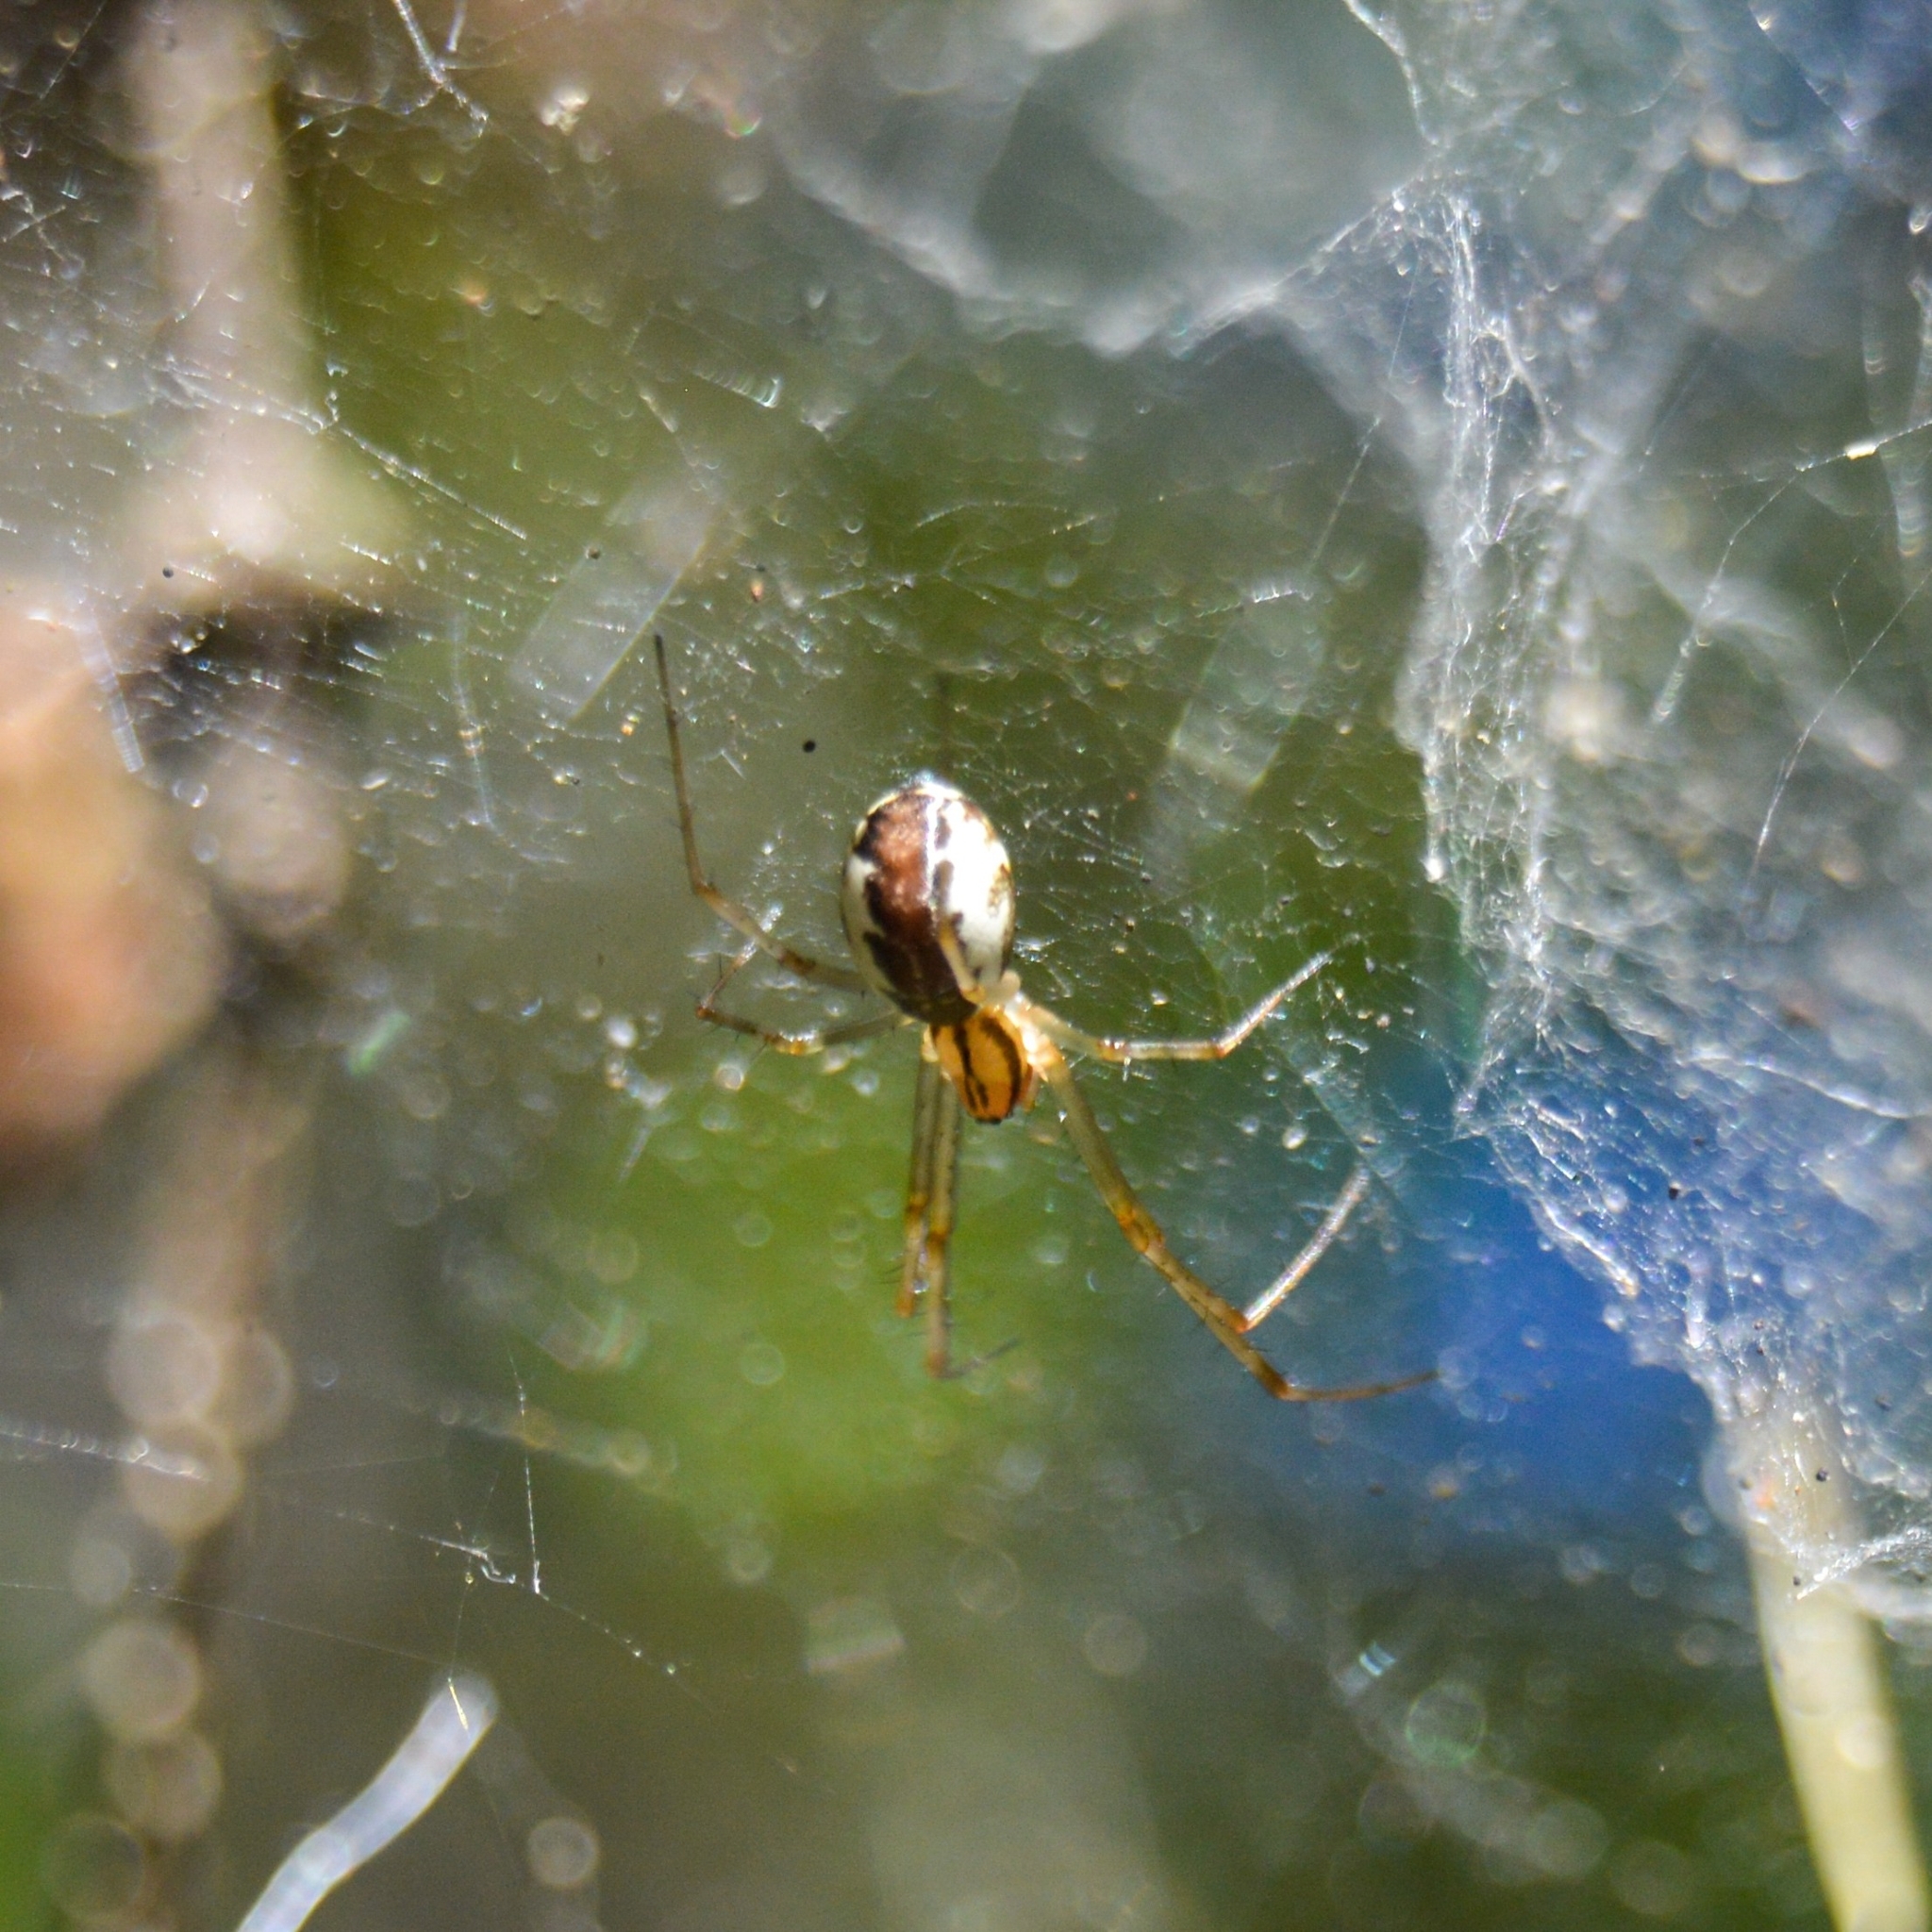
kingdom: Animalia
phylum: Arthropoda
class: Arachnida
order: Araneae
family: Linyphiidae
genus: Linyphia
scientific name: Linyphia triangularis
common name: Money spider
